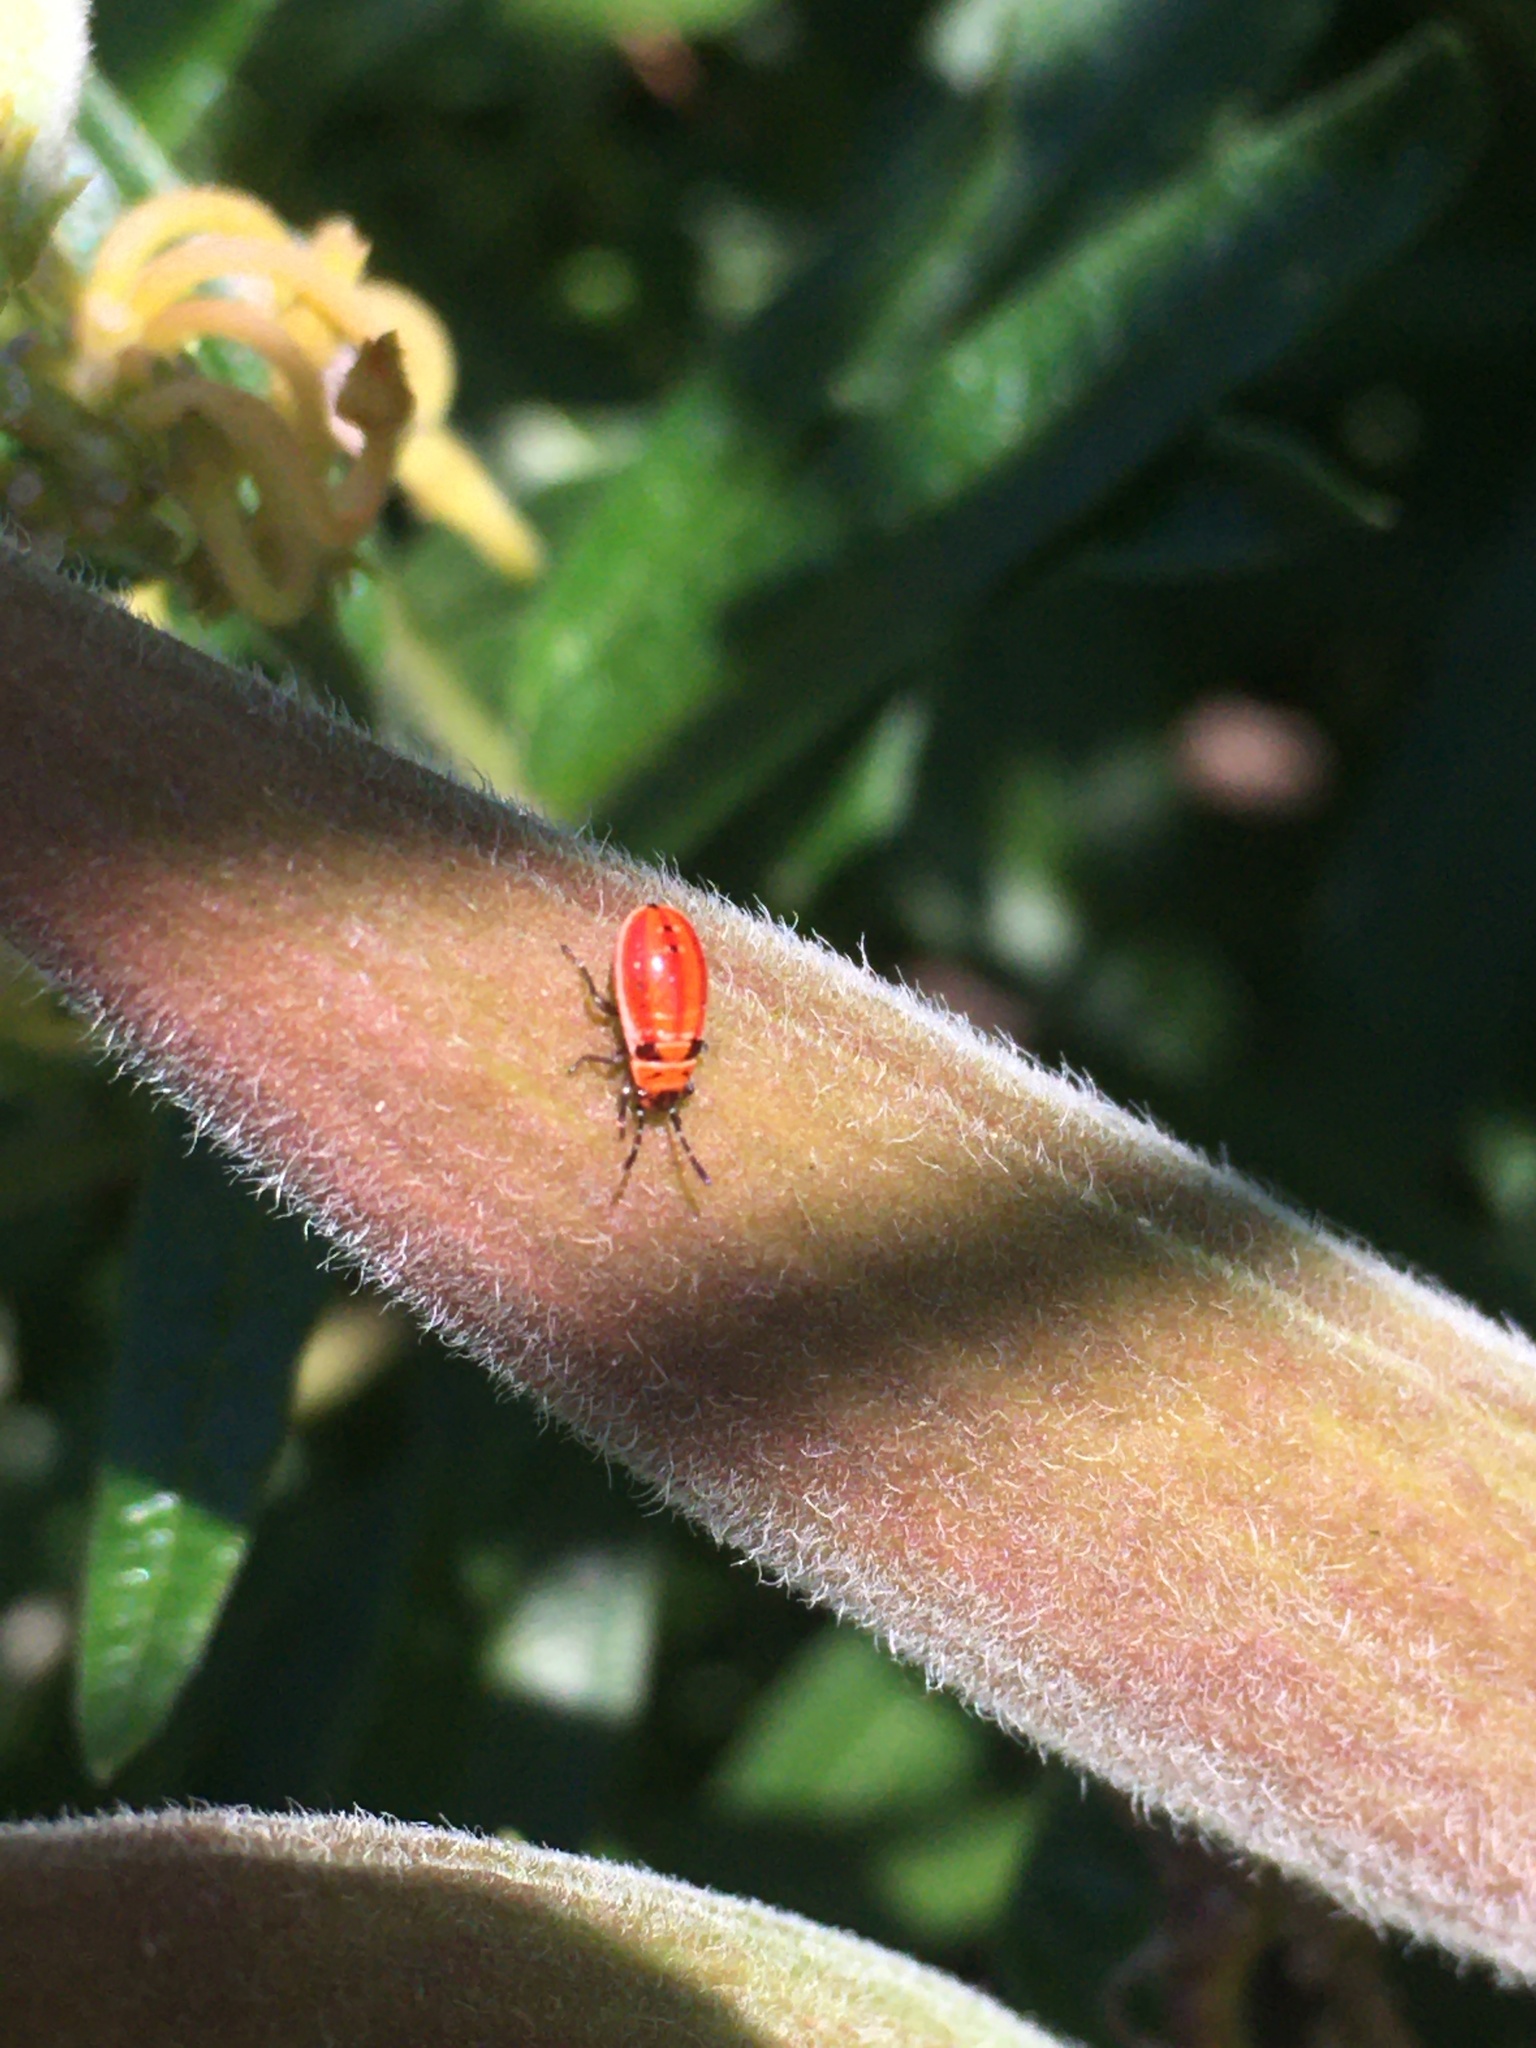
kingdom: Animalia
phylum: Arthropoda
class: Insecta
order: Hemiptera
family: Lygaeidae
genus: Lygaeus
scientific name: Lygaeus kalmii
